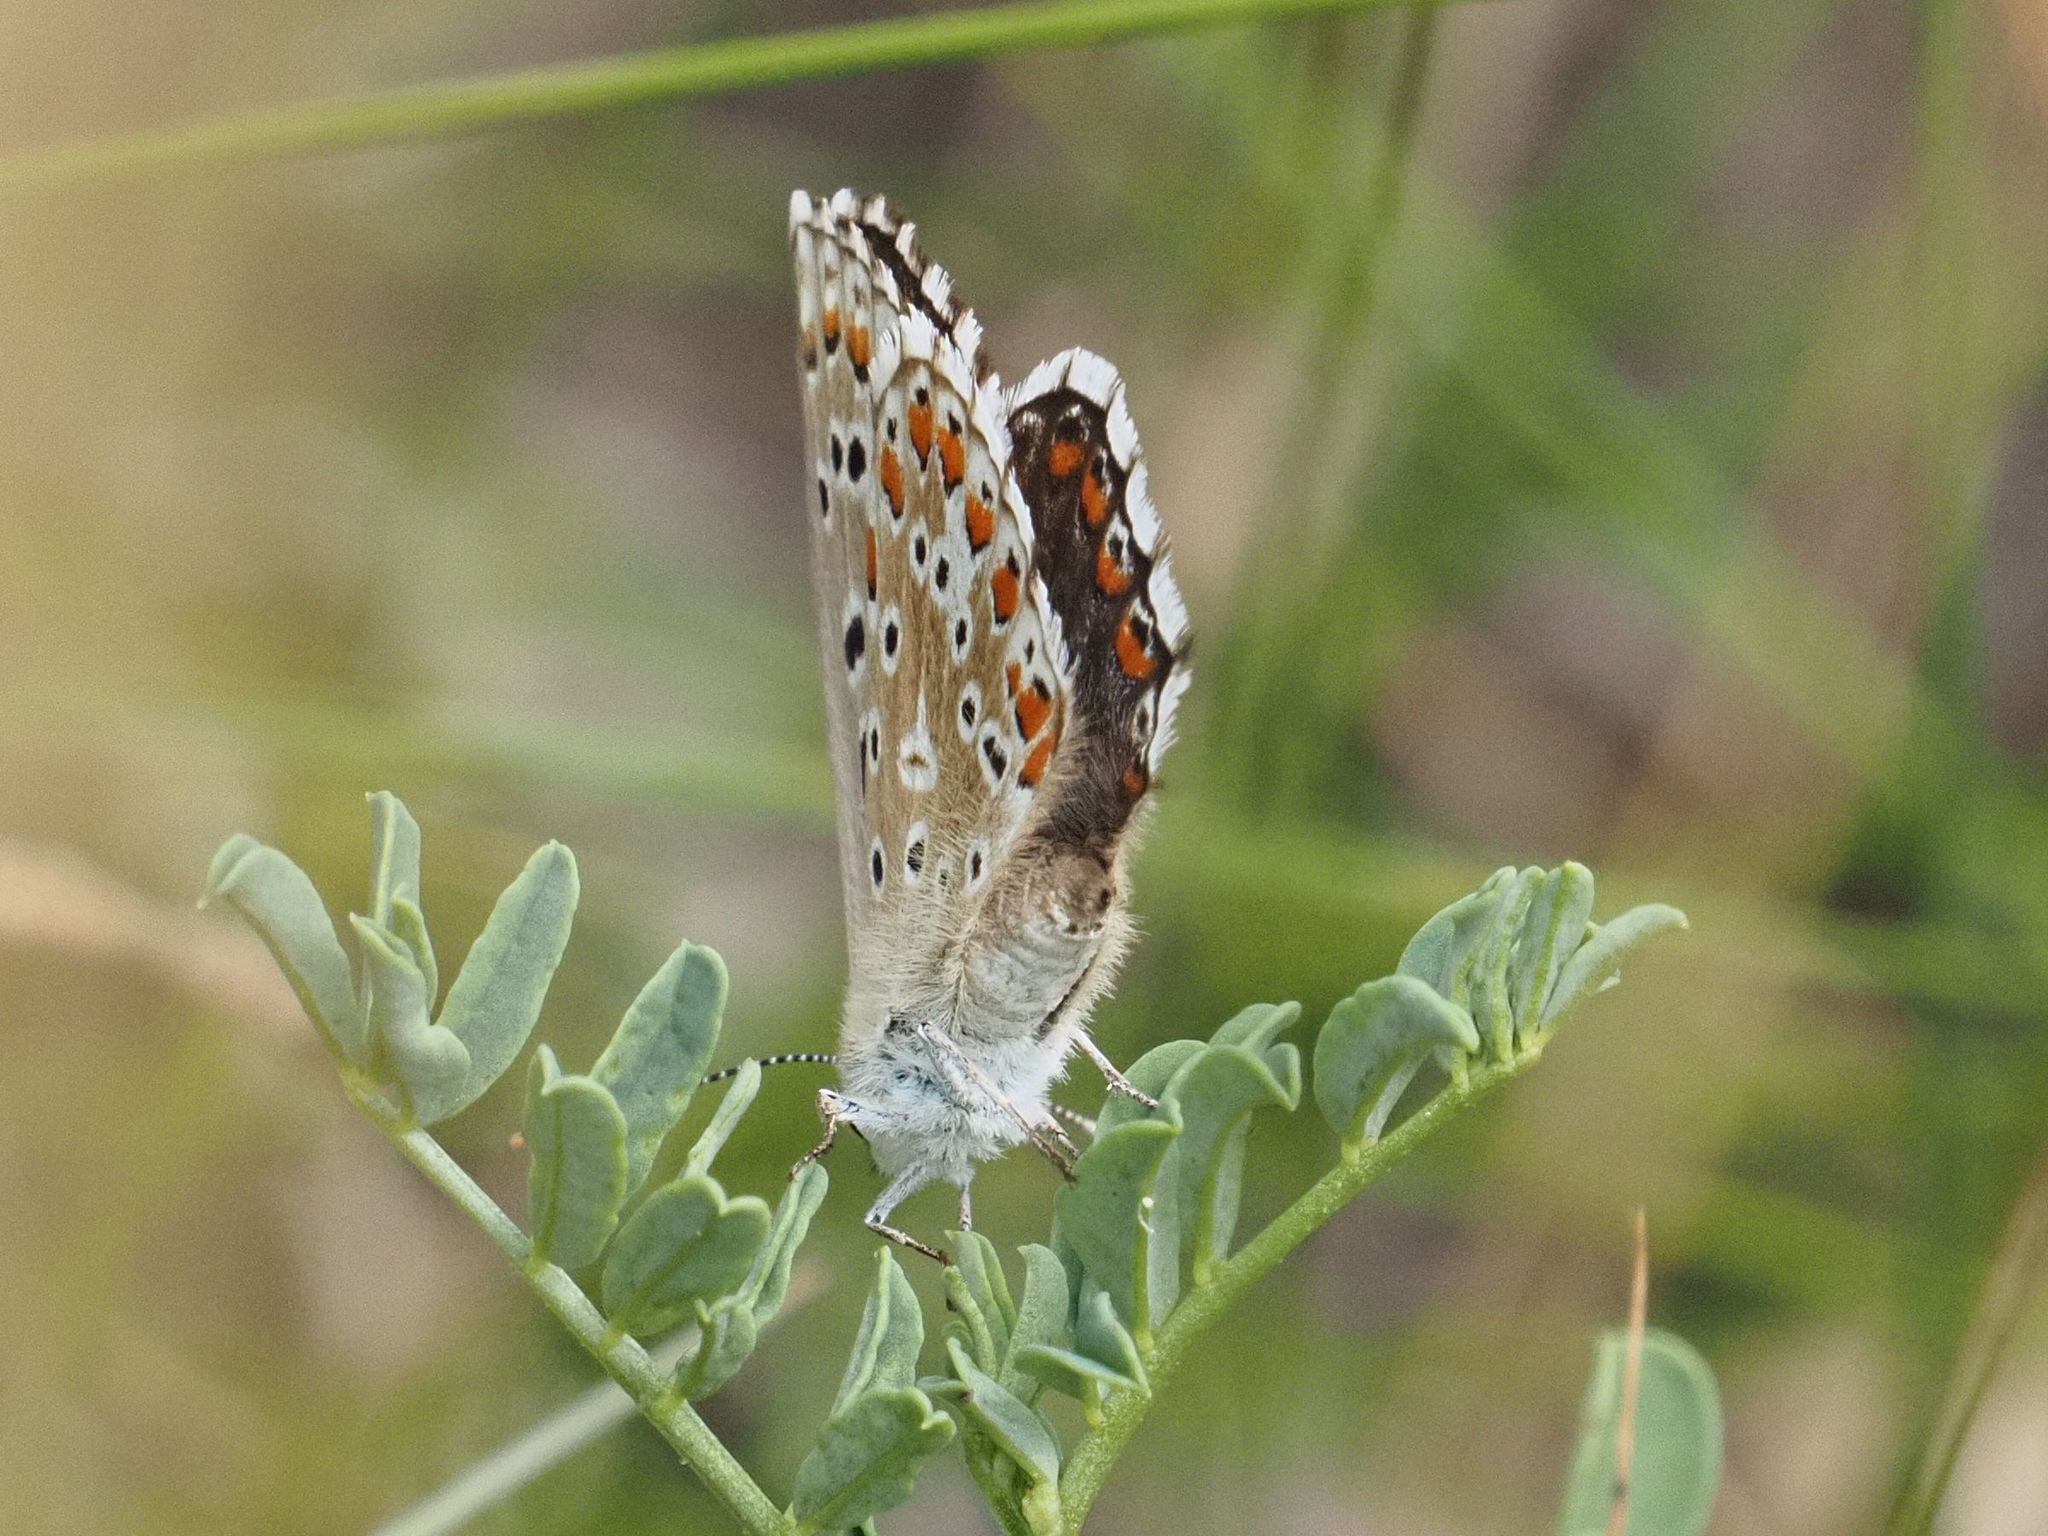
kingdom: Animalia
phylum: Arthropoda
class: Insecta
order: Lepidoptera
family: Lycaenidae
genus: Lysandra
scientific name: Lysandra bellargus
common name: Adonis blue
